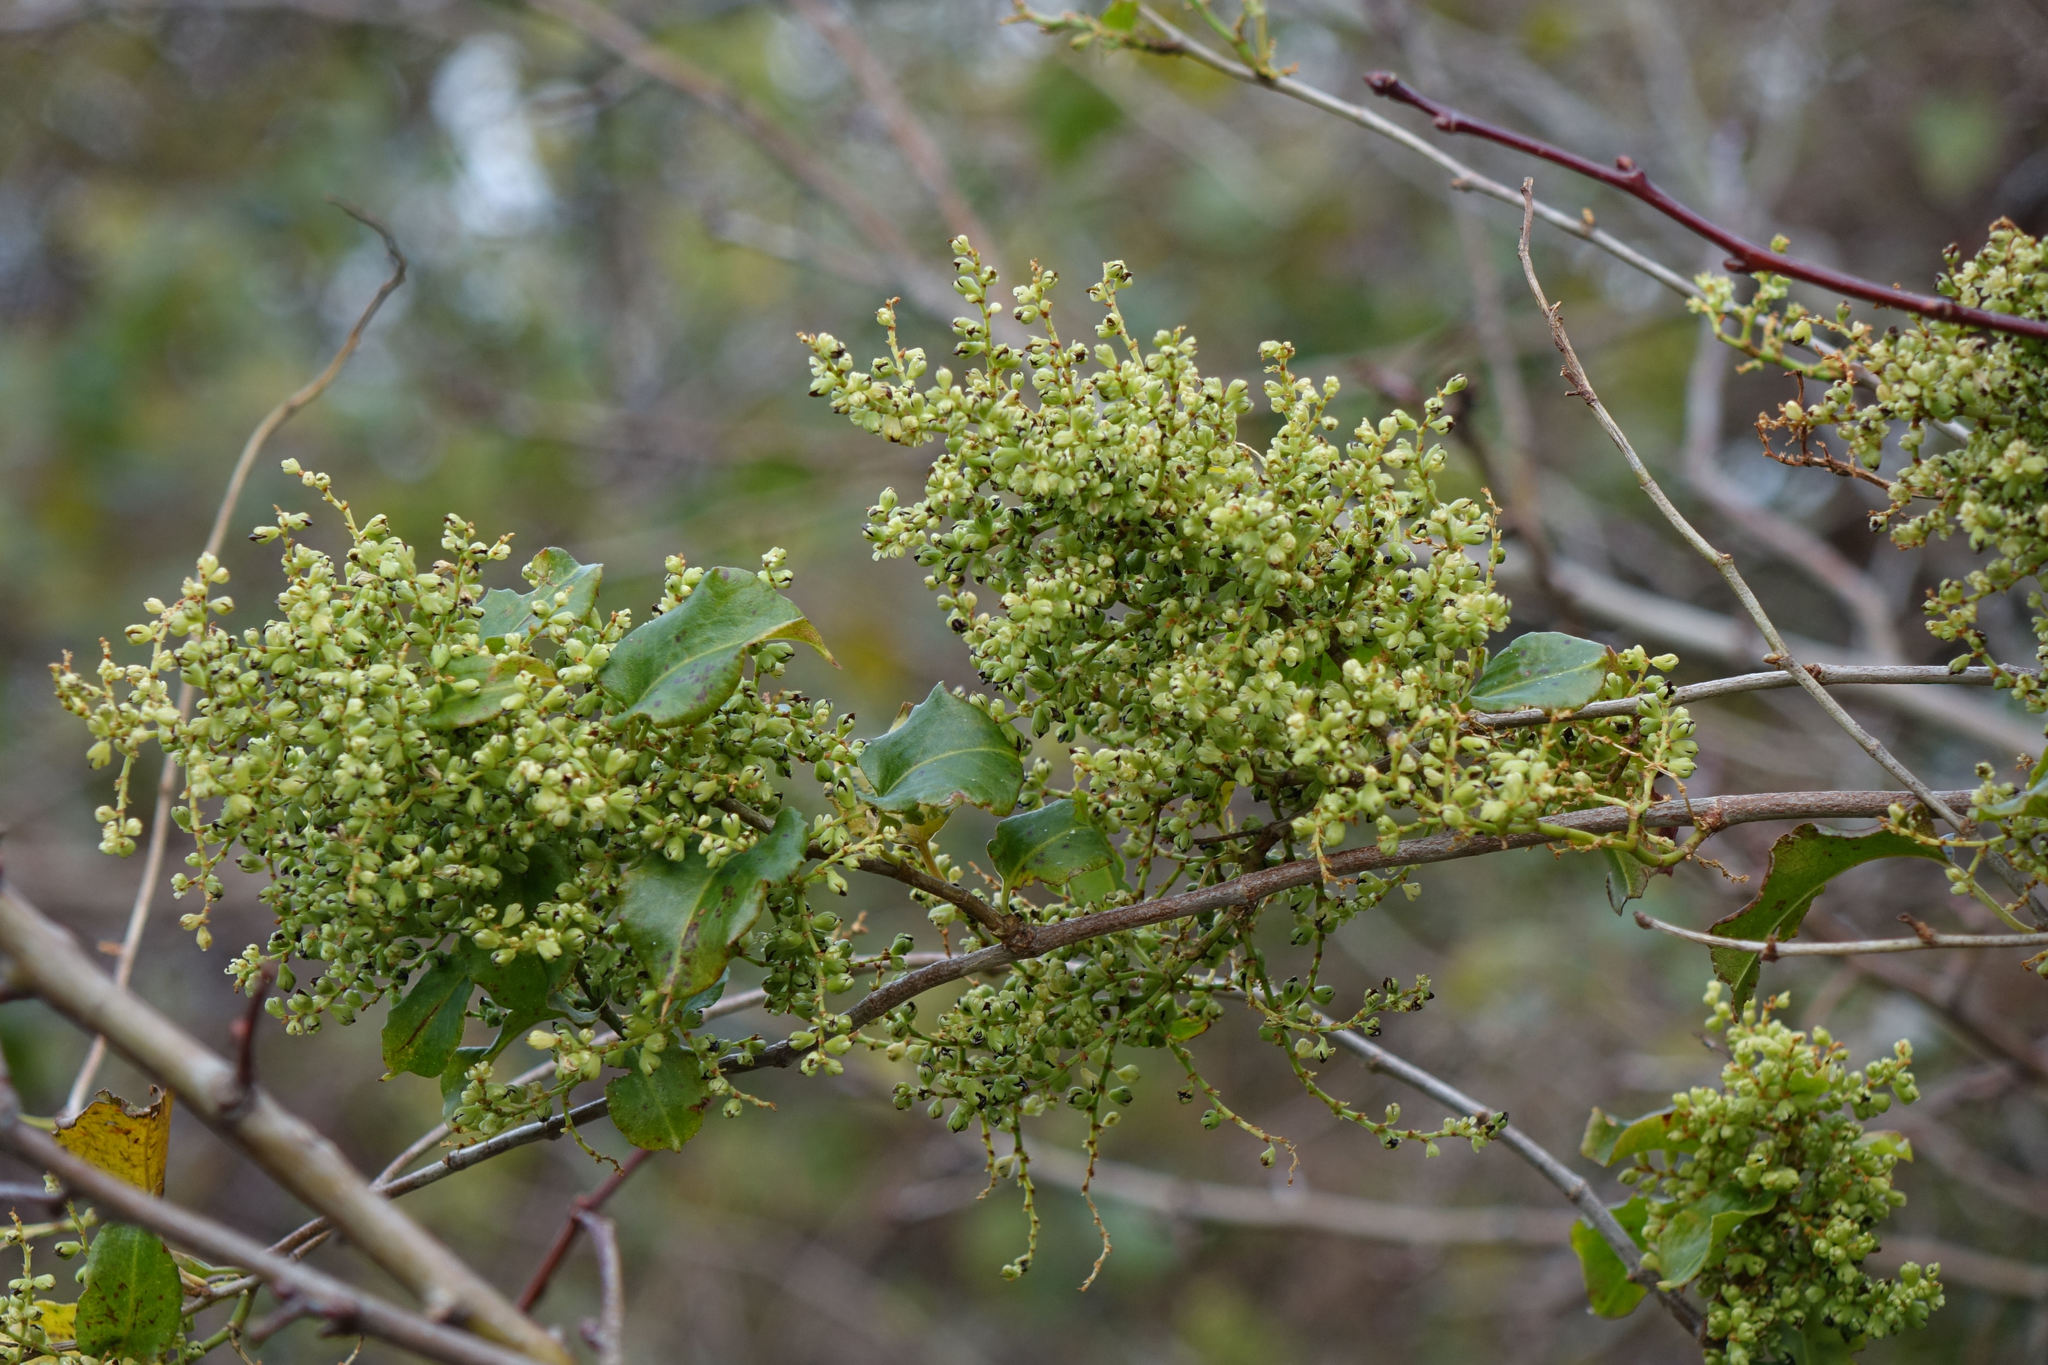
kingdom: Plantae
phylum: Tracheophyta
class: Magnoliopsida
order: Caryophyllales
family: Polygonaceae
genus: Muehlenbeckia
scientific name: Muehlenbeckia australis
